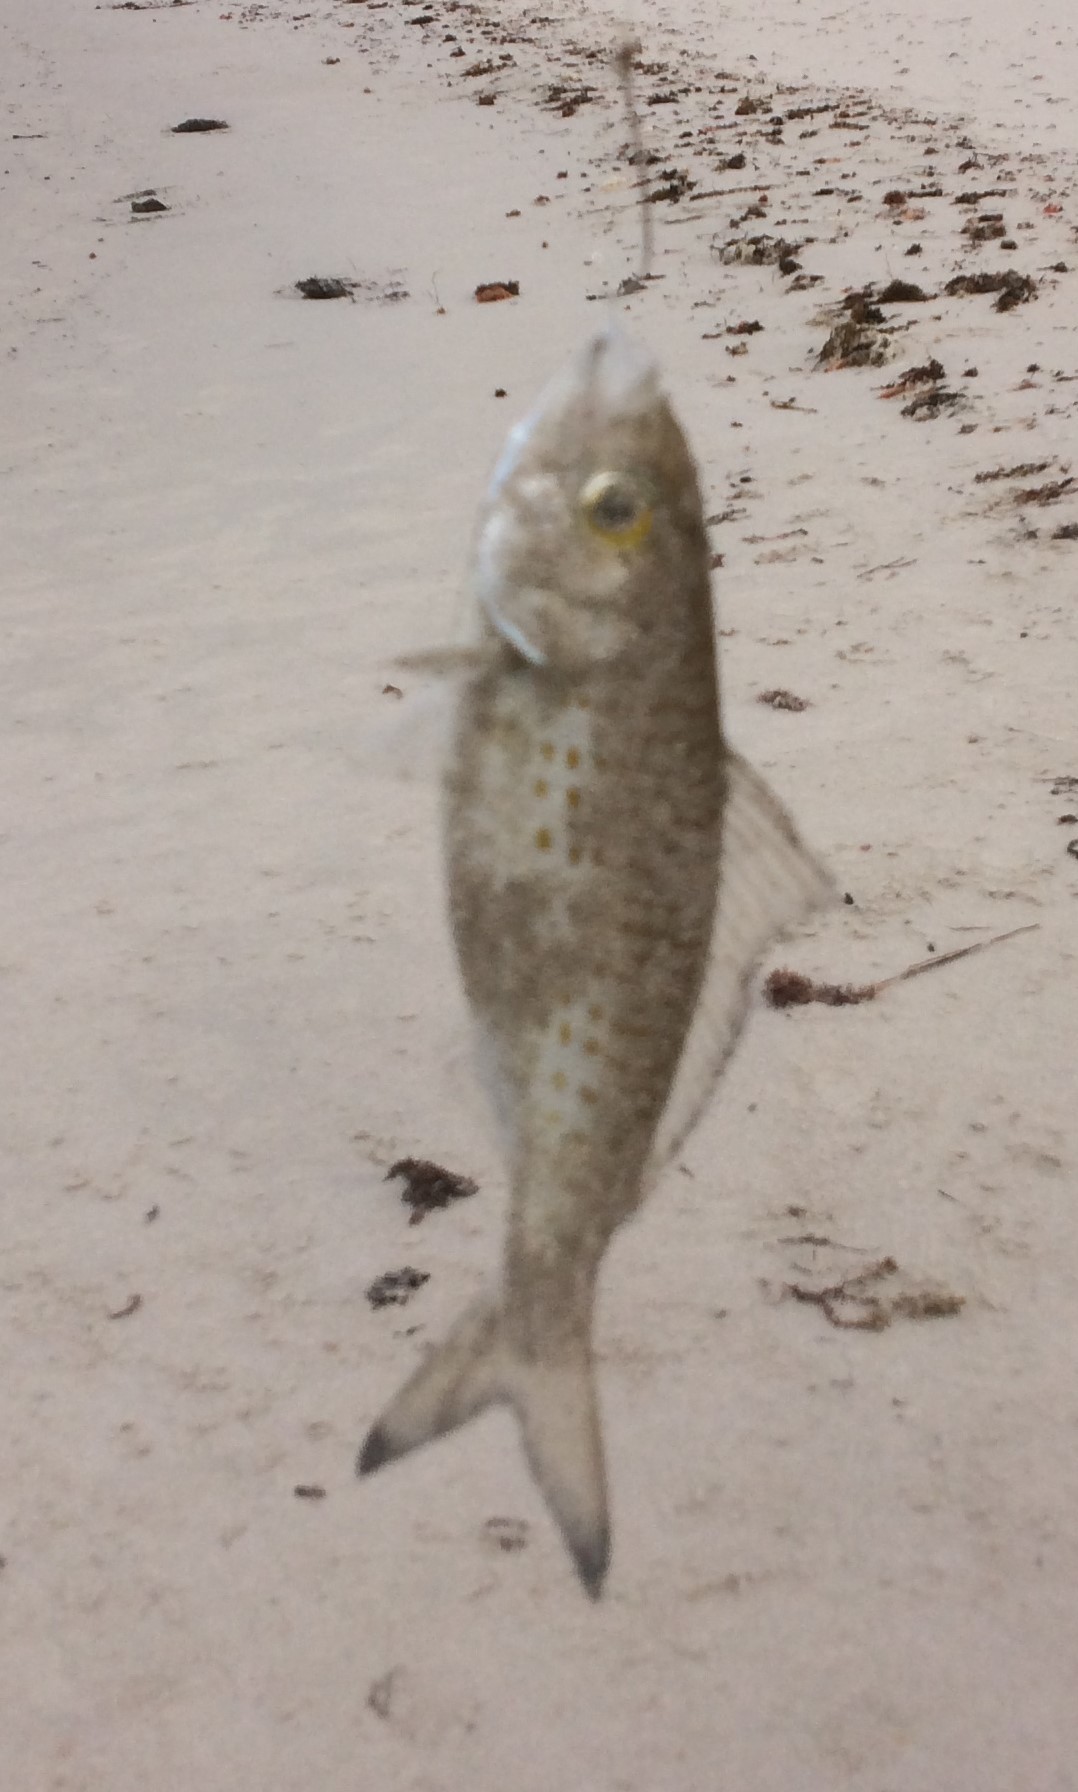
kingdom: Animalia
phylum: Chordata
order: Perciformes
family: Arripidae
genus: Arripis
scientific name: Arripis georgianus
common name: Australian herring
